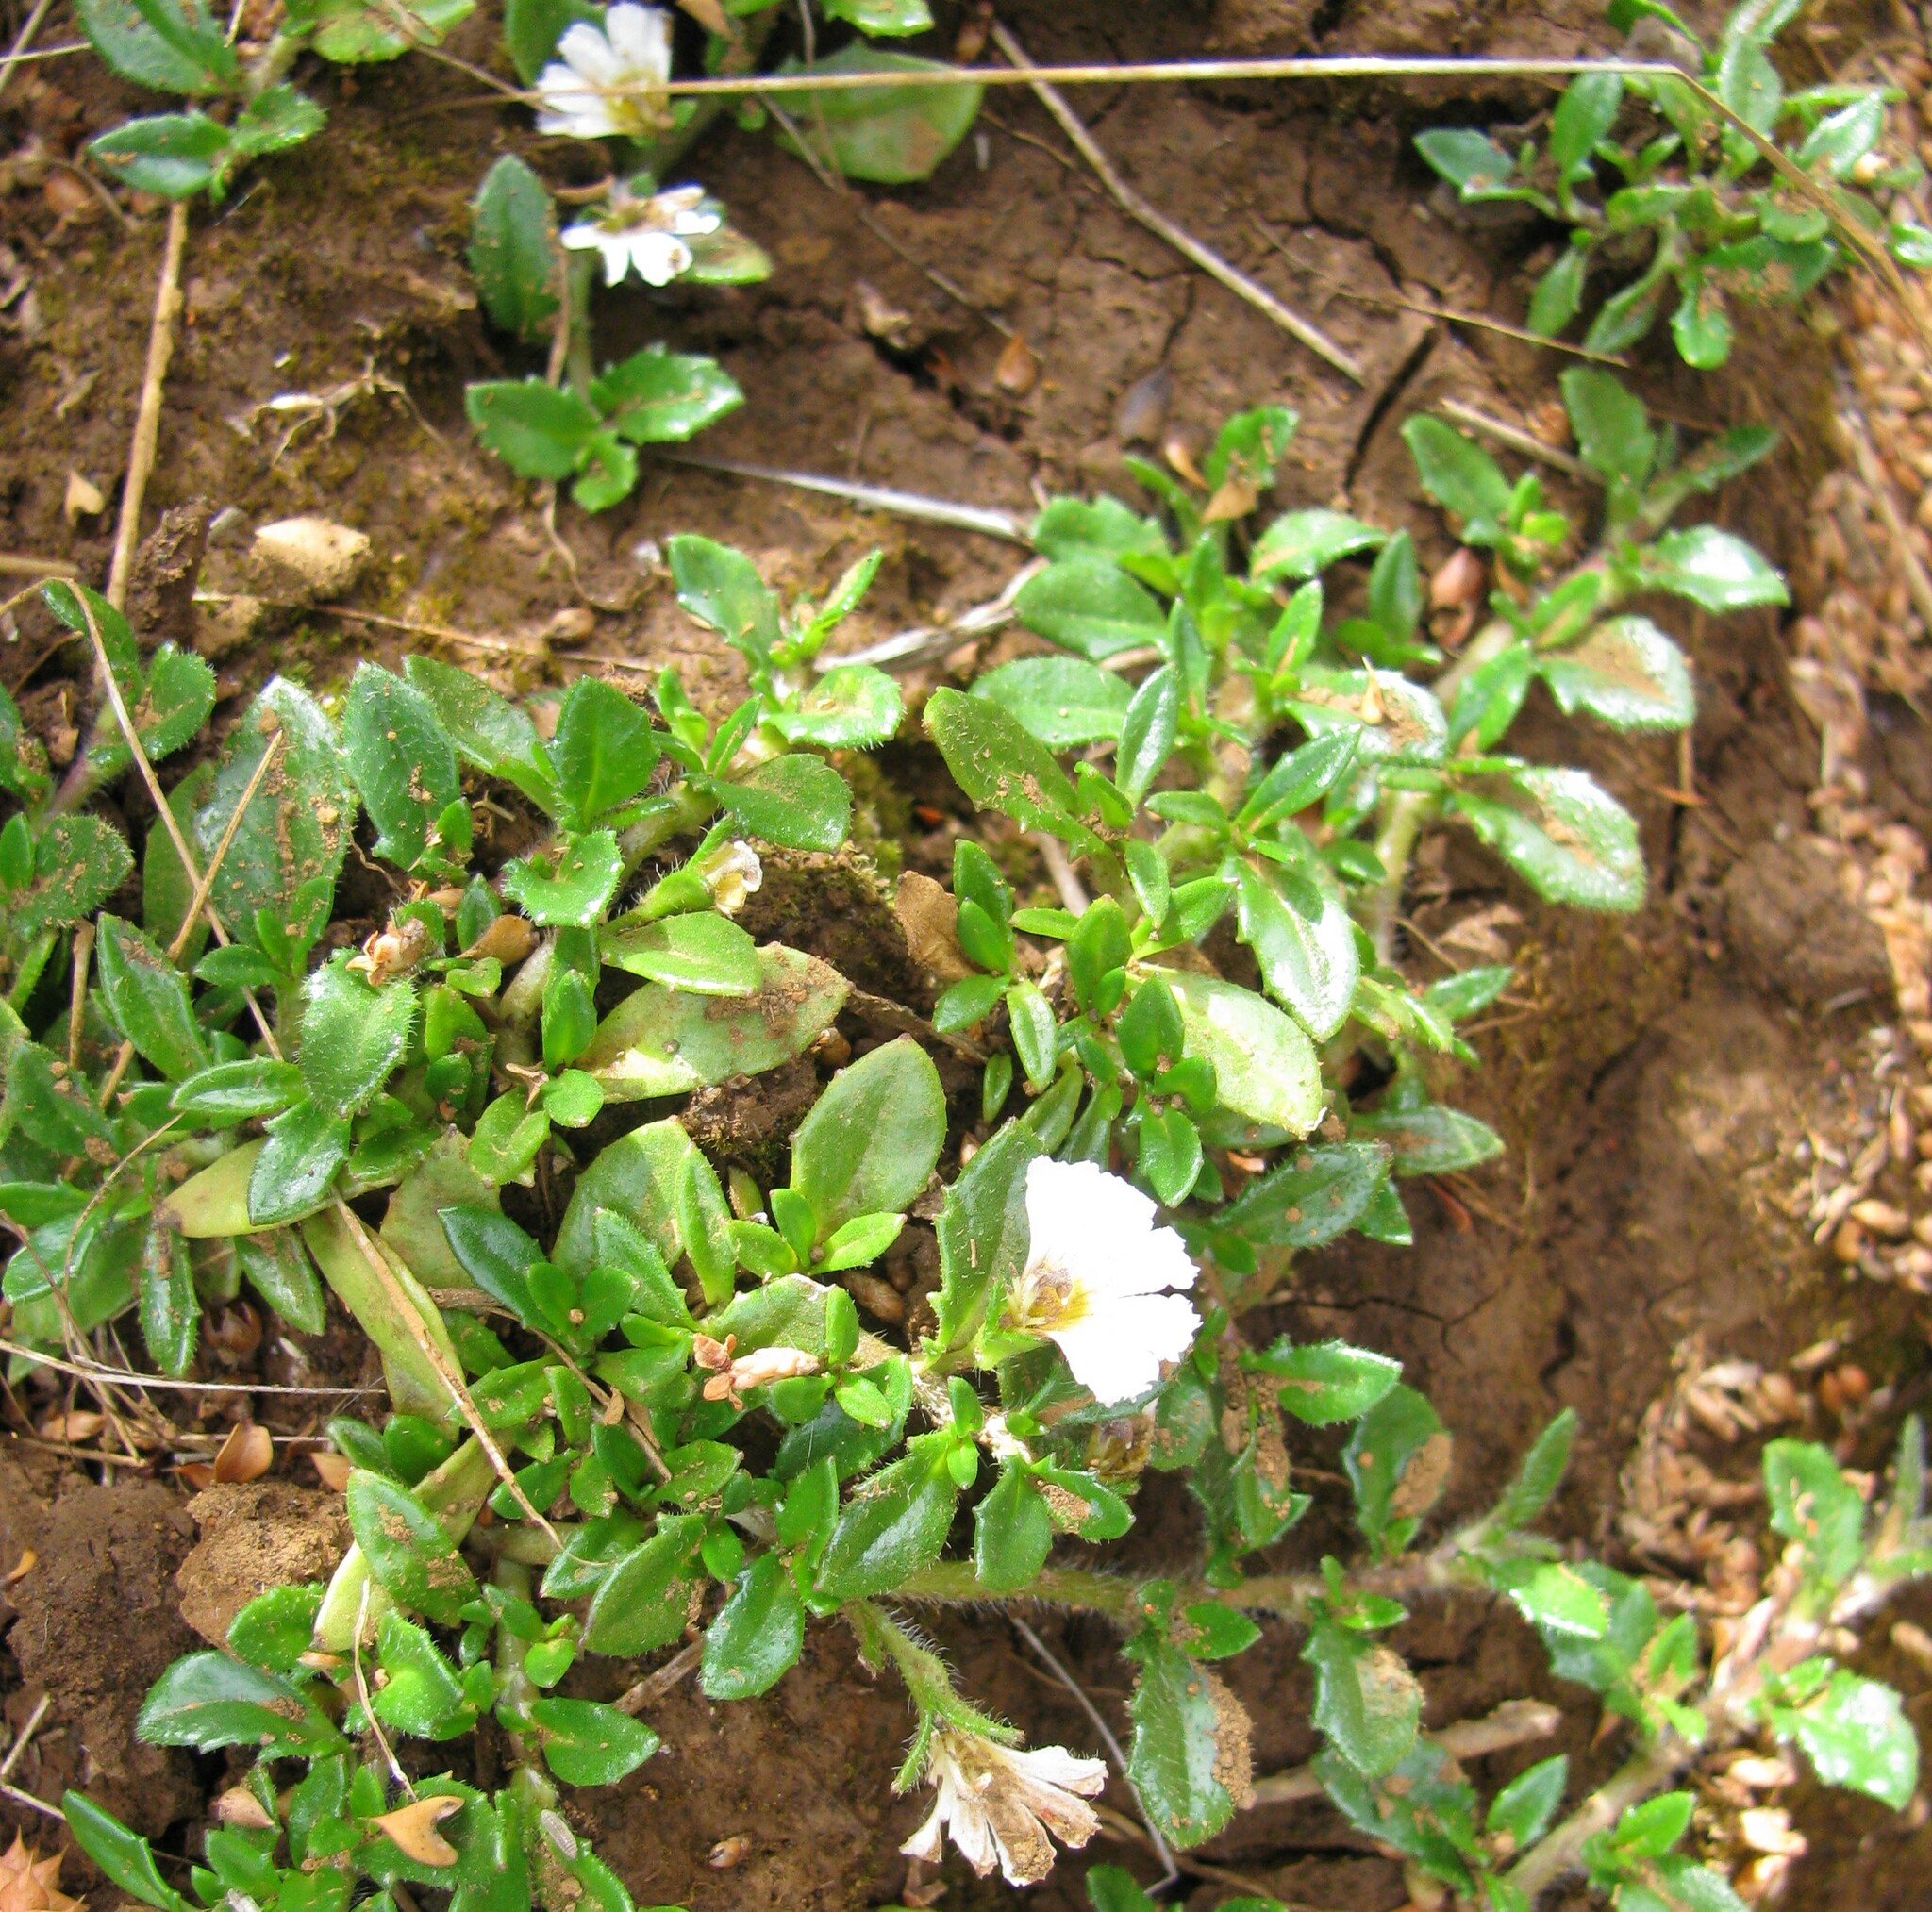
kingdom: Plantae
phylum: Tracheophyta
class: Magnoliopsida
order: Asterales
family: Goodeniaceae
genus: Scaevola
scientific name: Scaevola hookeri
